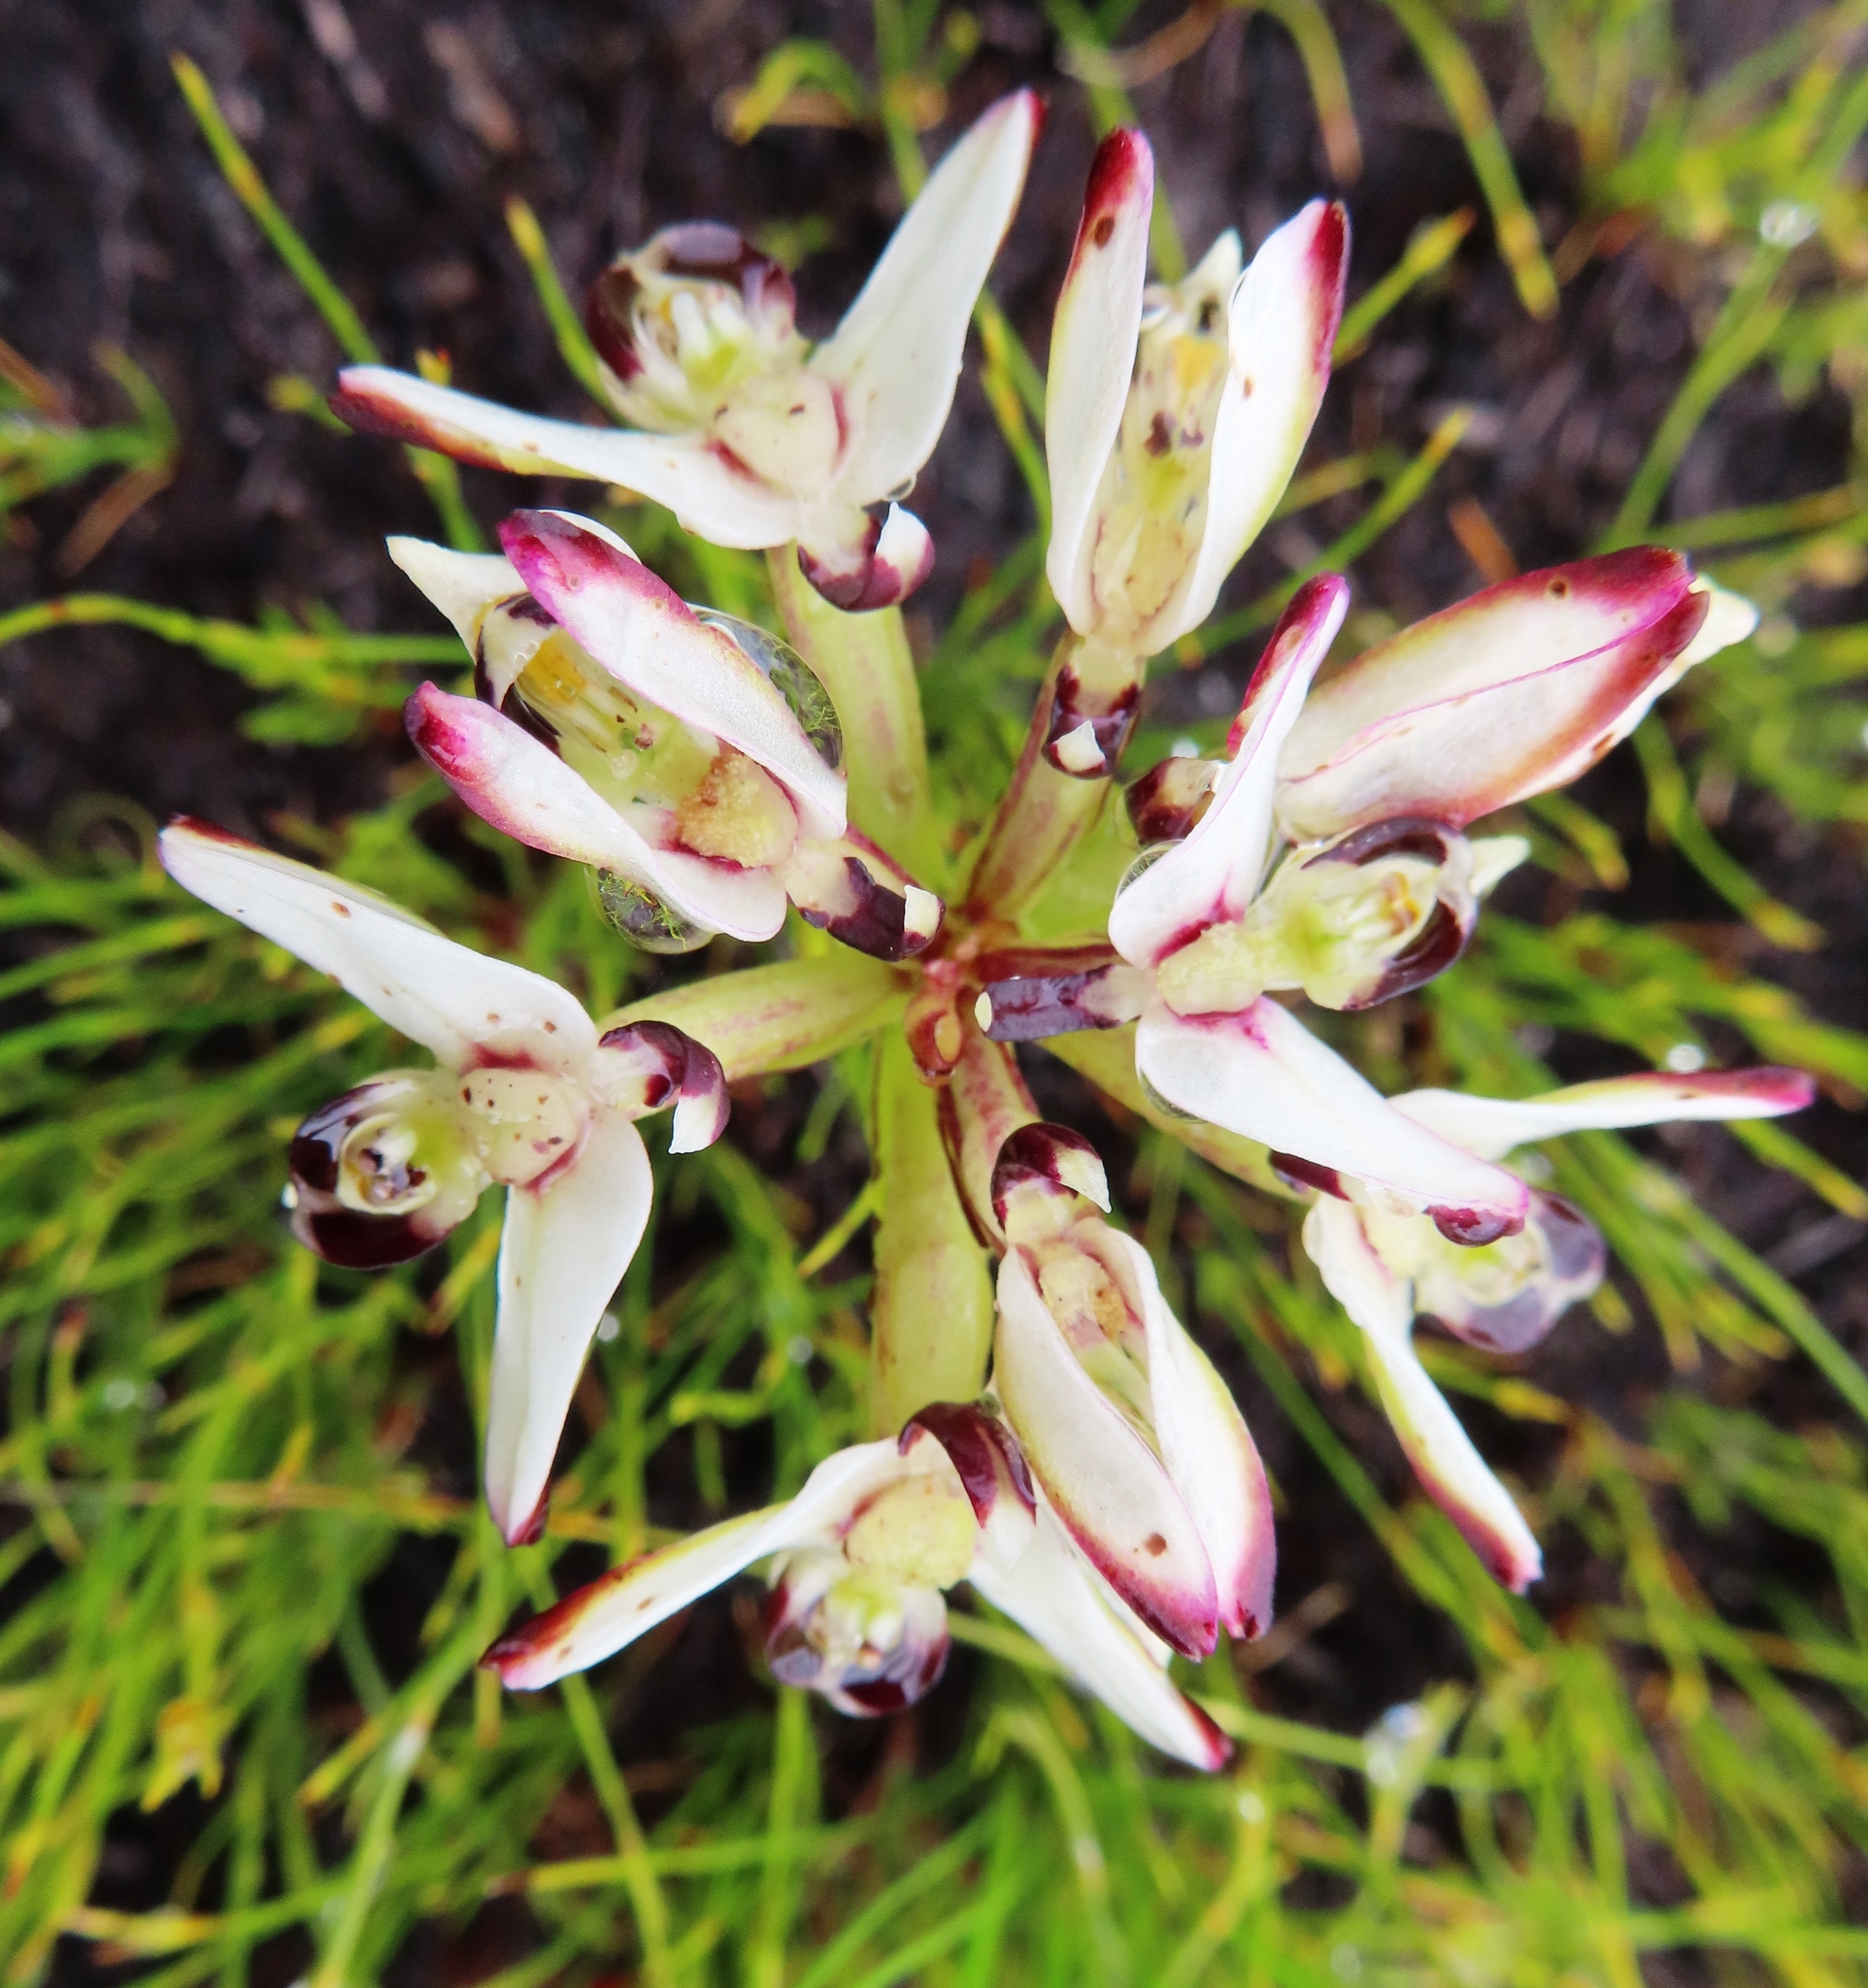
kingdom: Plantae
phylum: Tracheophyta
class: Liliopsida
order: Asparagales
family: Orchidaceae
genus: Disa
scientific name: Disa bivalvata
